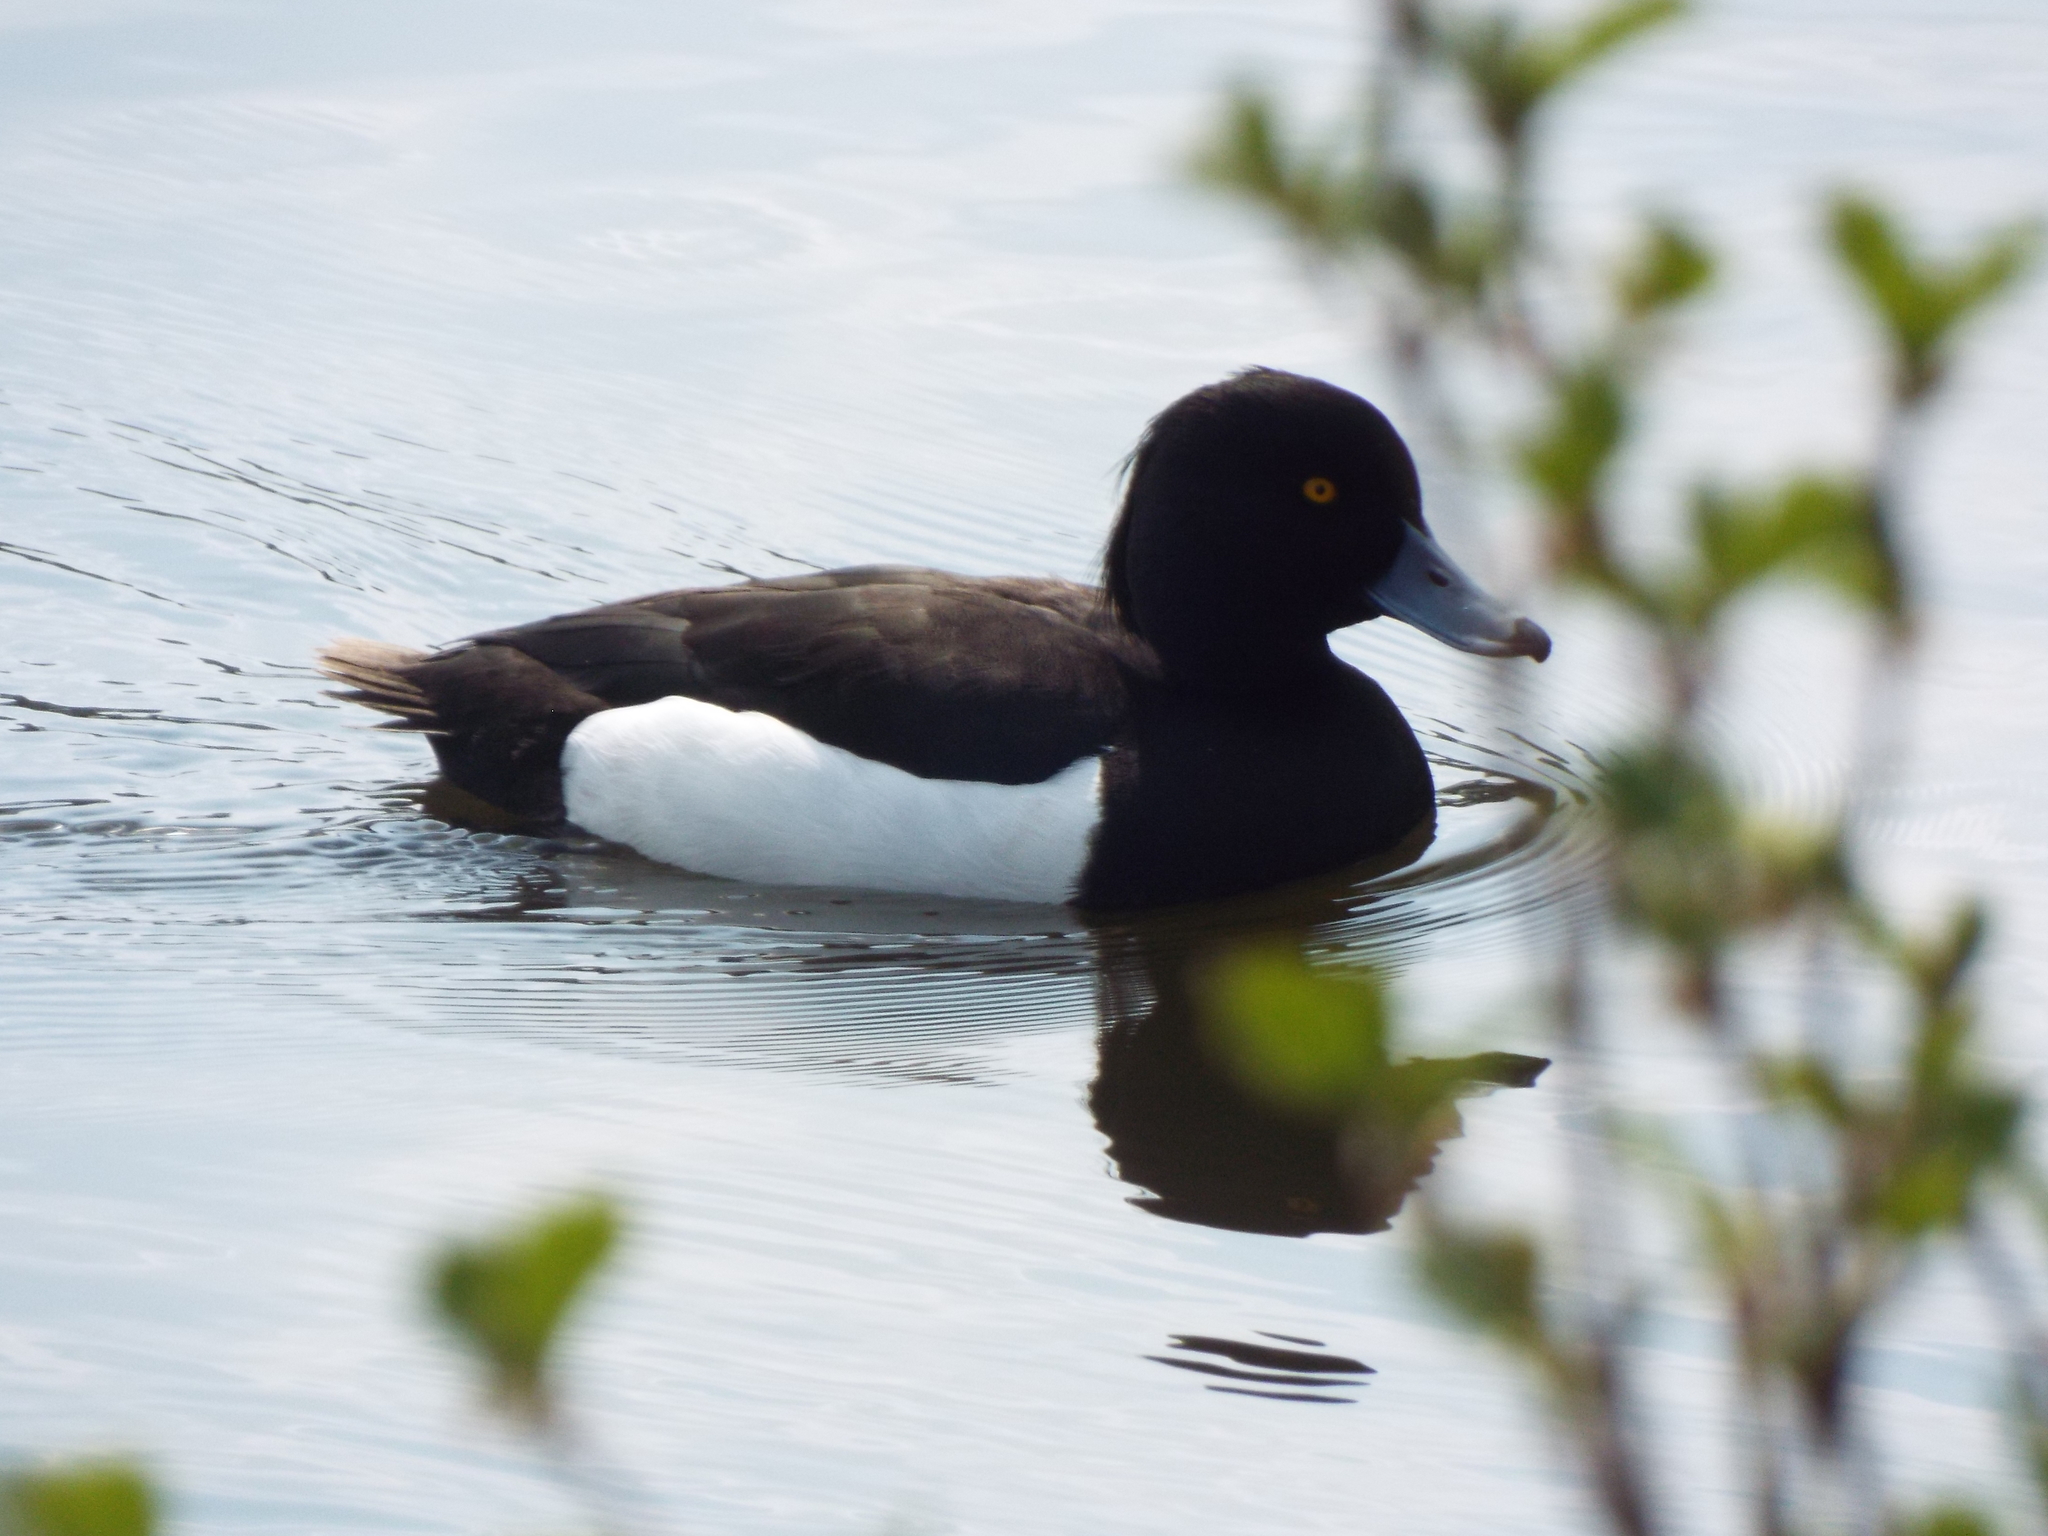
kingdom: Animalia
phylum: Chordata
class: Aves
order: Anseriformes
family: Anatidae
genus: Aythya
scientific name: Aythya fuligula
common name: Tufted duck
